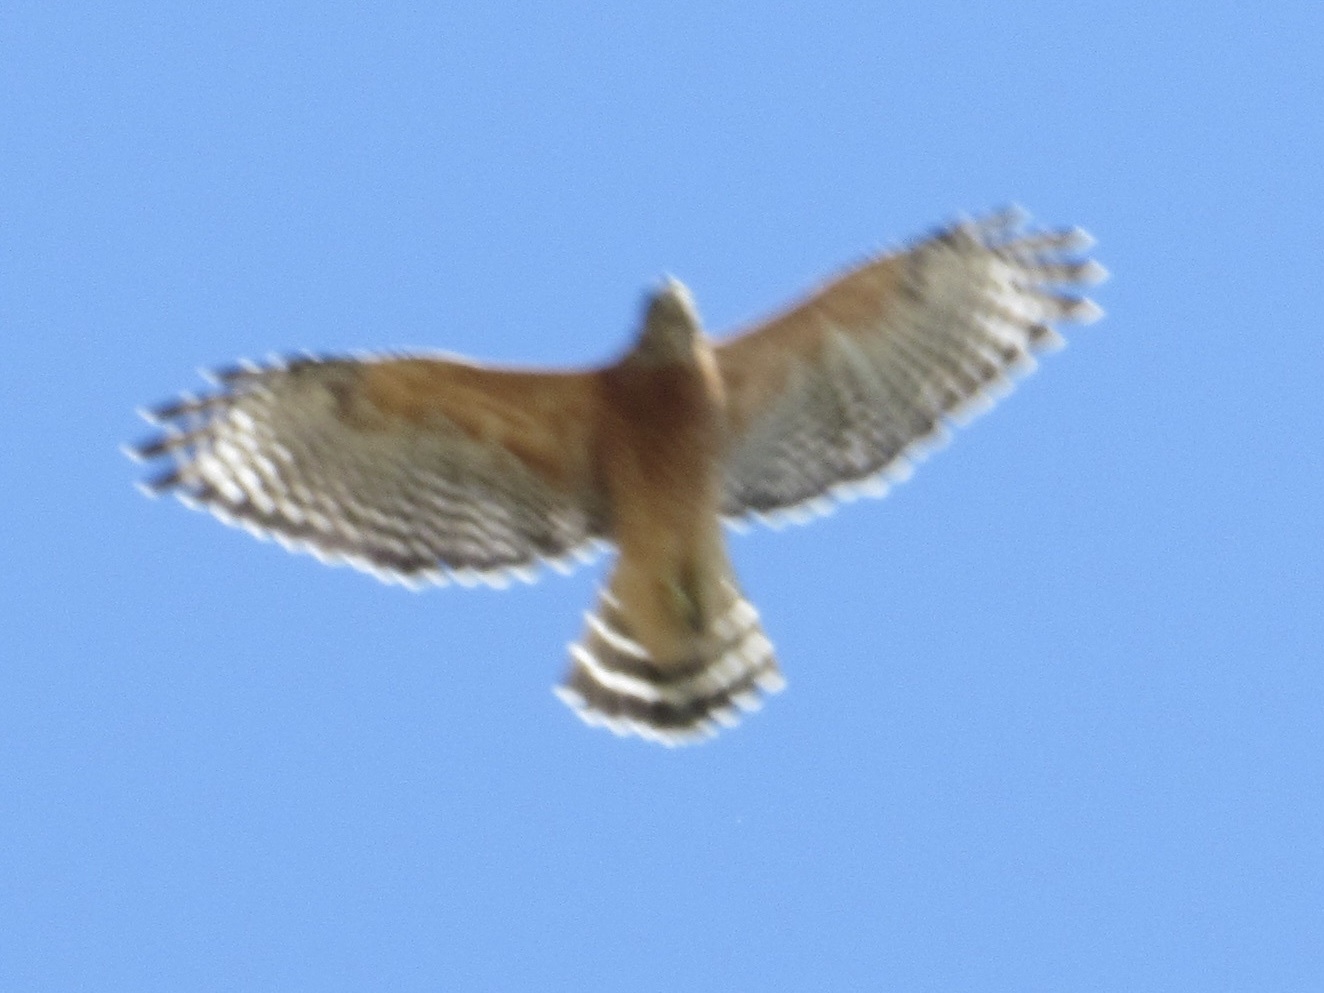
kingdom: Animalia
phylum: Chordata
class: Aves
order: Accipitriformes
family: Accipitridae
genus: Buteo
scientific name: Buteo lineatus
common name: Red-shouldered hawk
